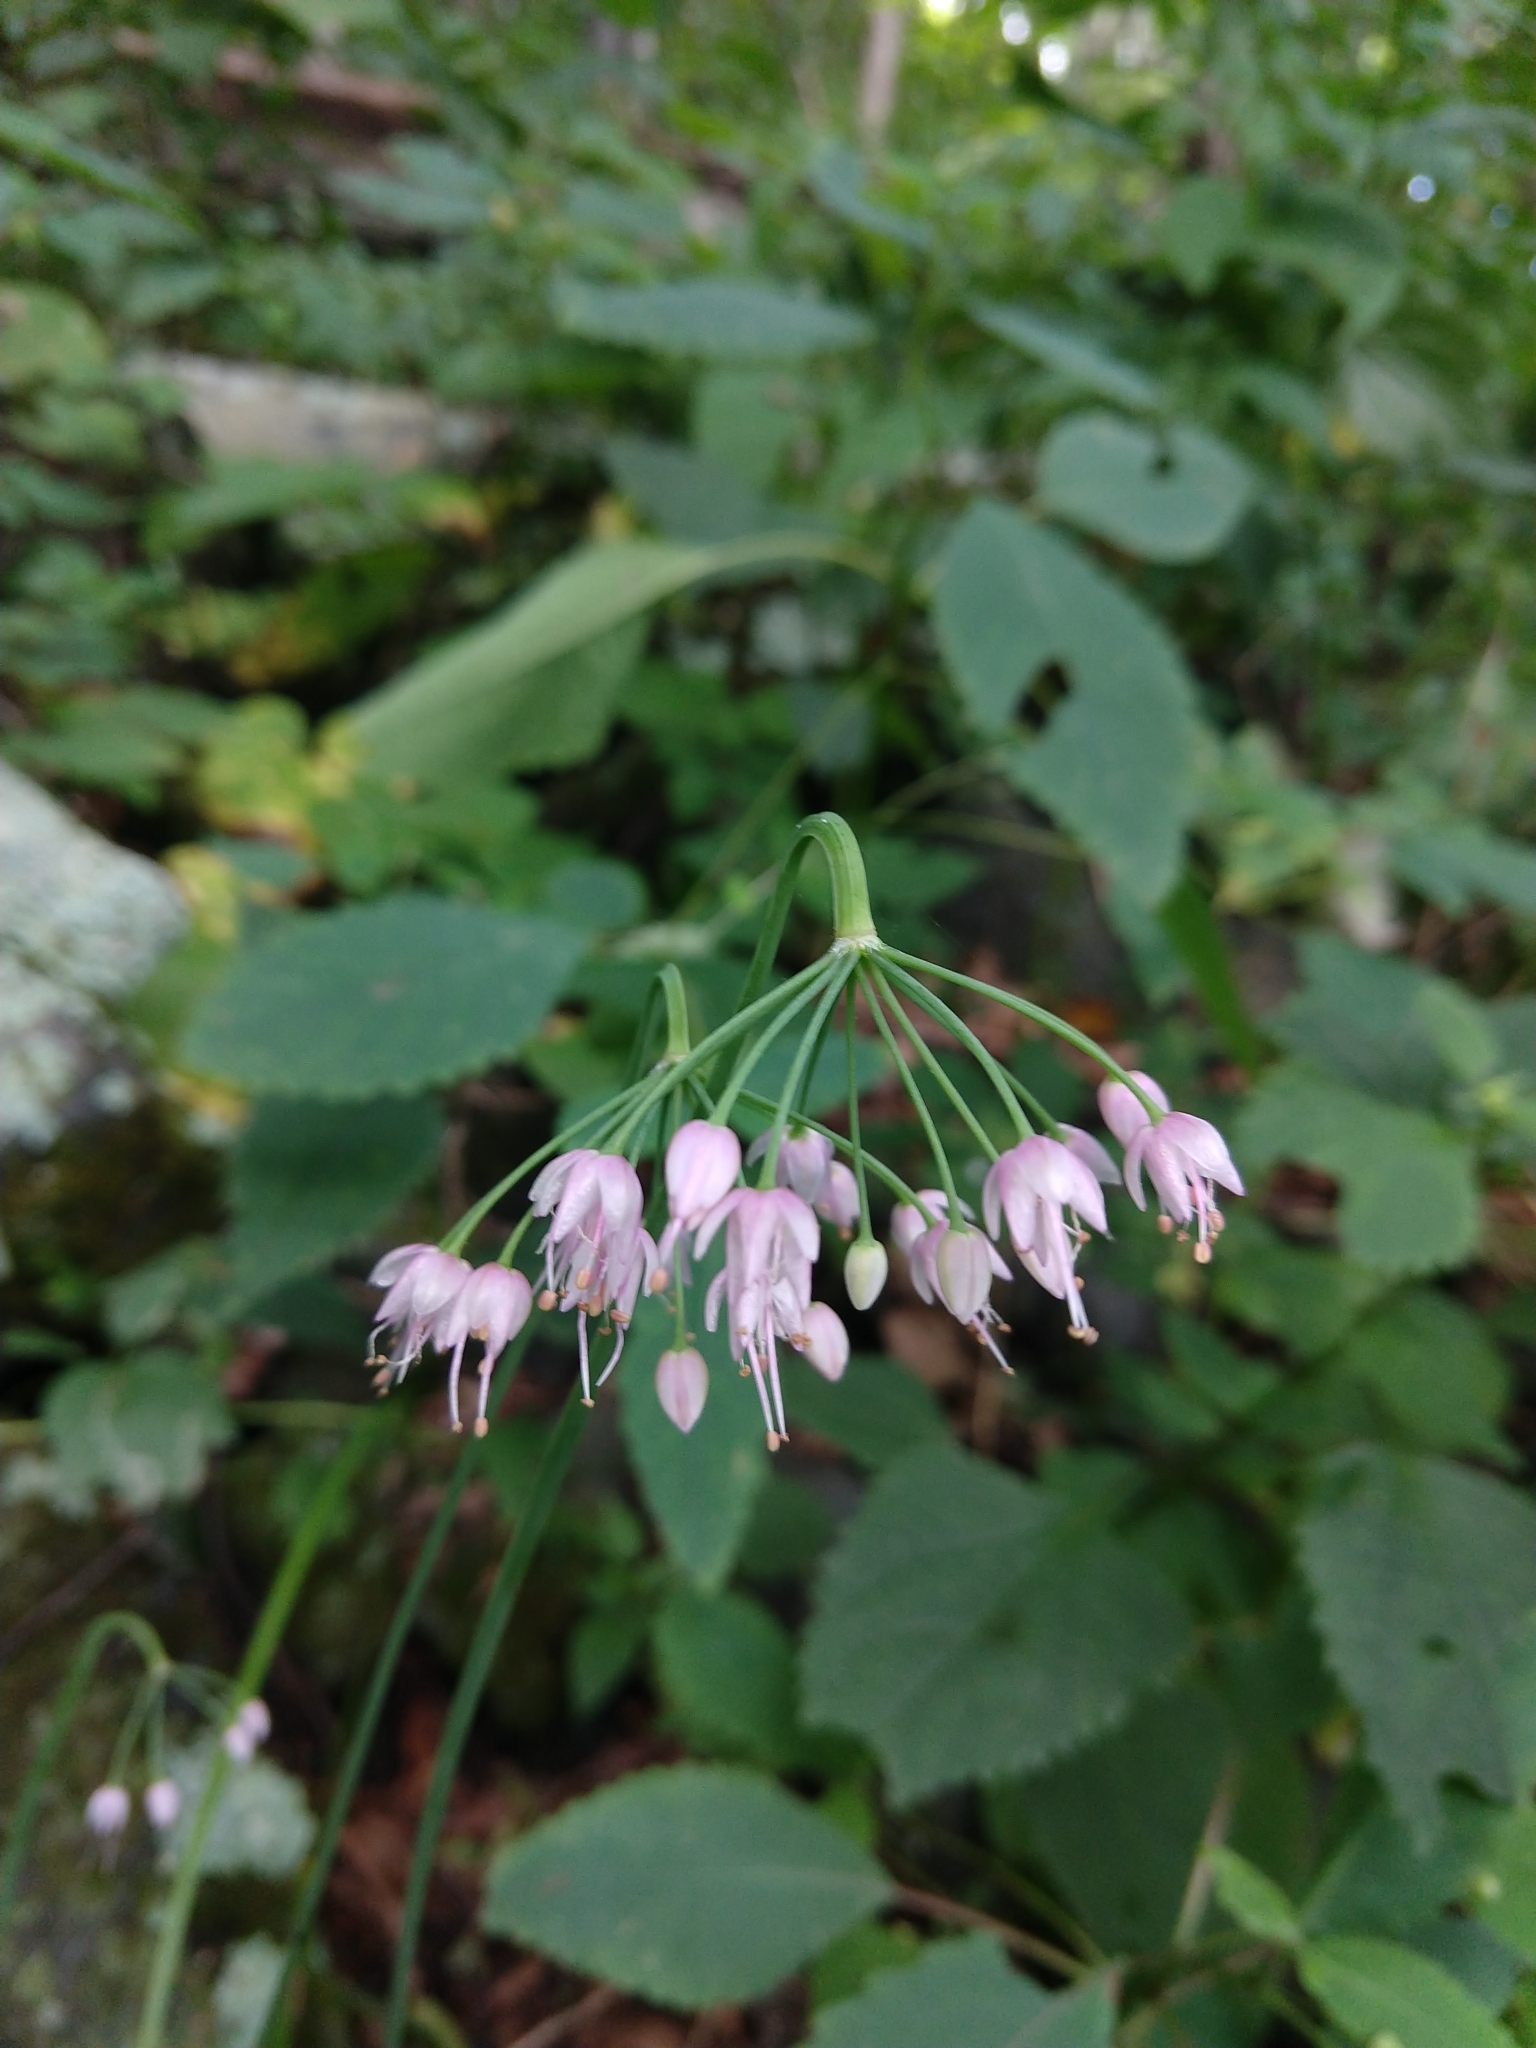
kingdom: Plantae
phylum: Tracheophyta
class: Liliopsida
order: Asparagales
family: Amaryllidaceae
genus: Allium
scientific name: Allium cernuum
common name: Nodding onion
